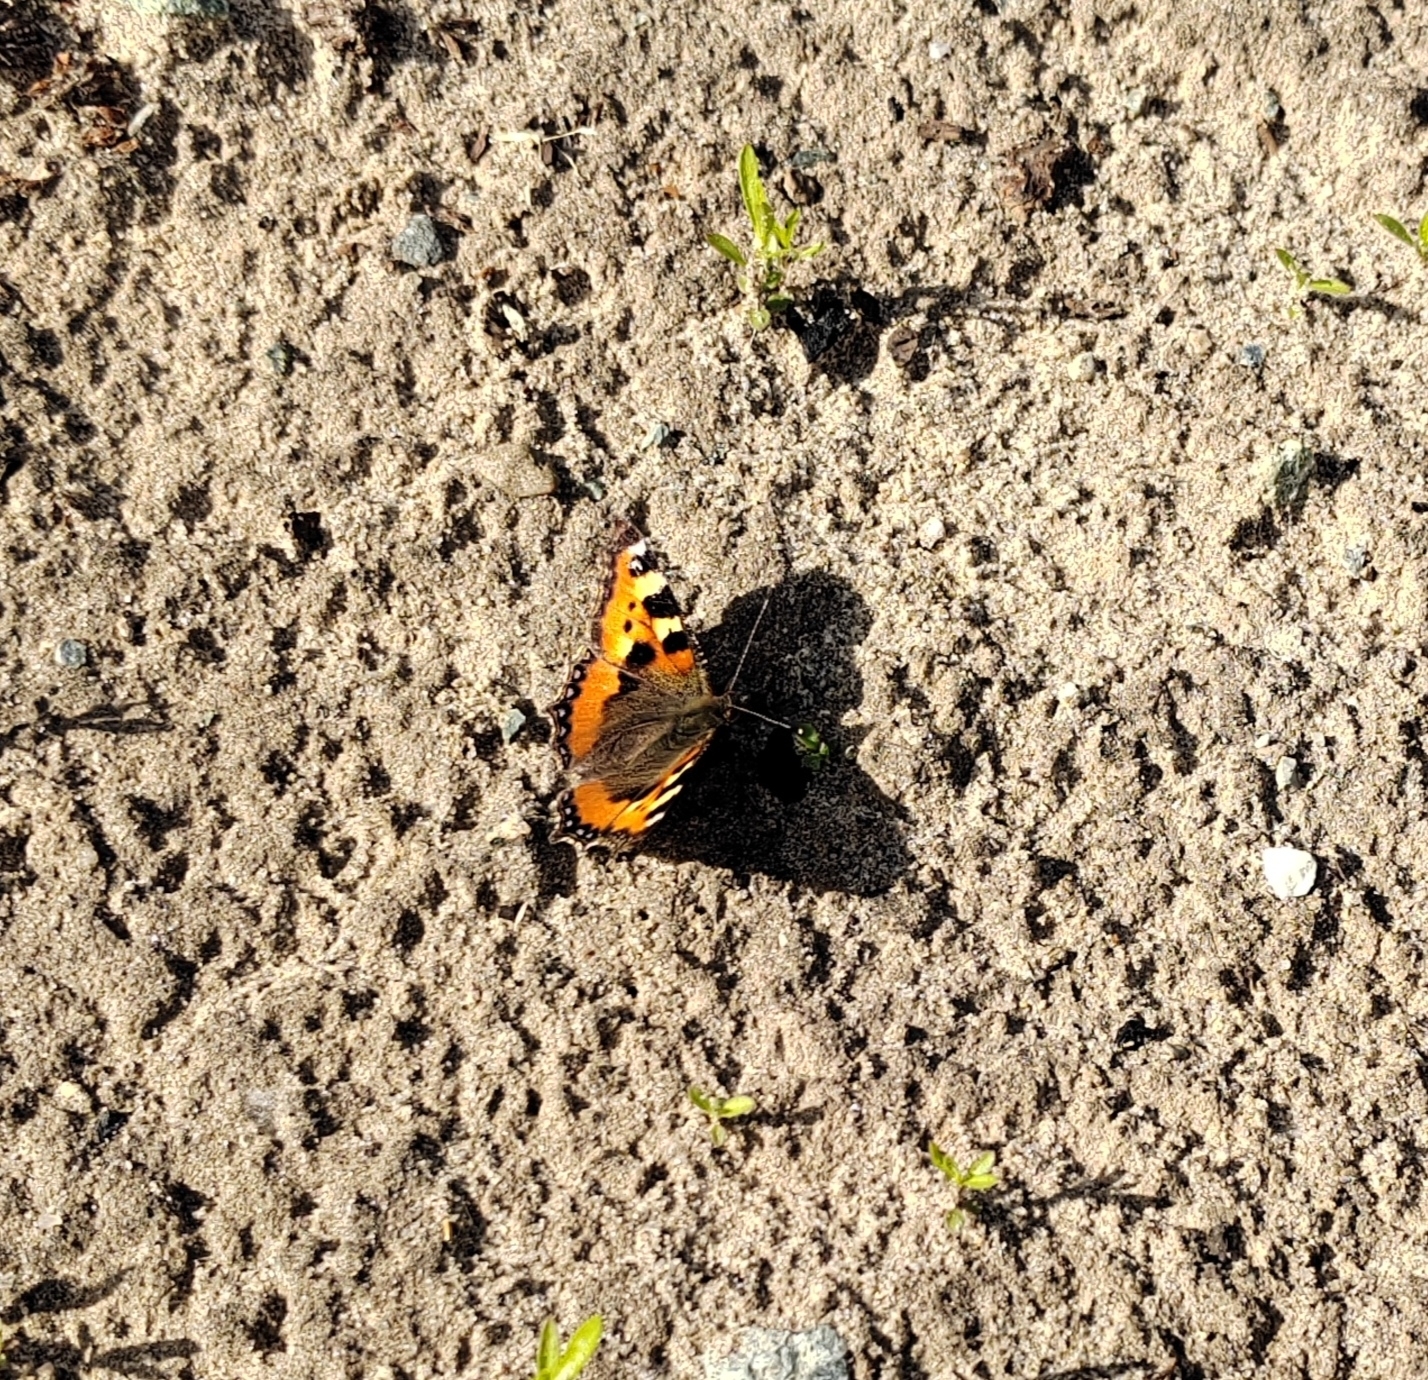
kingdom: Animalia
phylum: Arthropoda
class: Insecta
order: Lepidoptera
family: Nymphalidae
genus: Aglais
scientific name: Aglais urticae
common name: Small tortoiseshell
